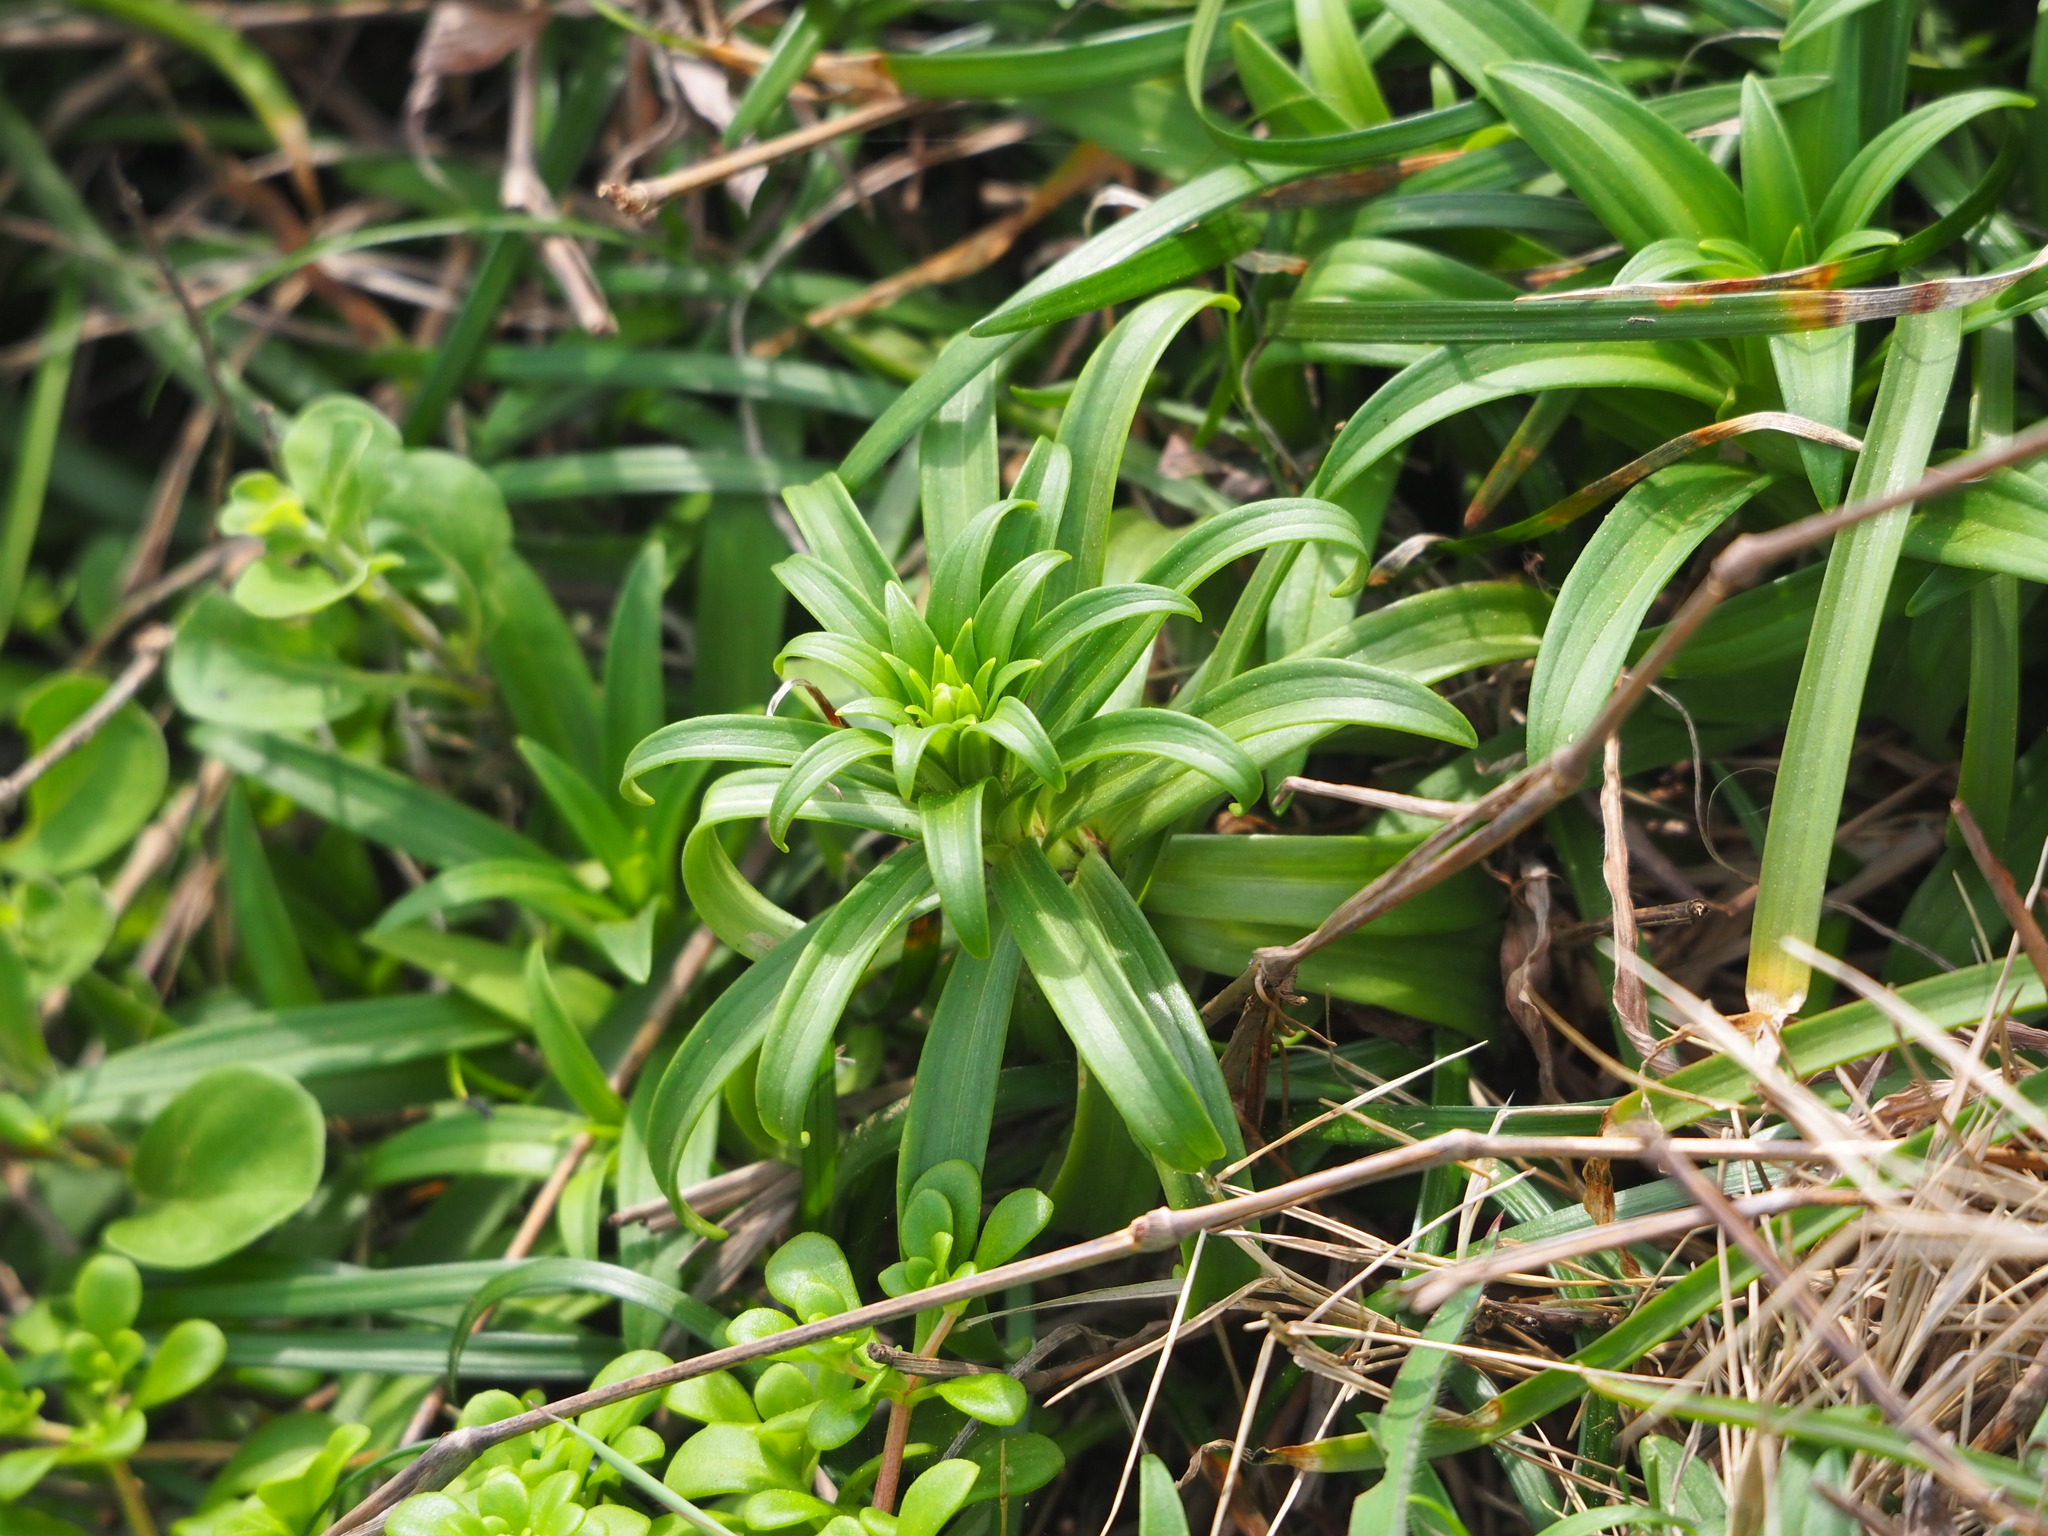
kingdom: Plantae
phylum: Tracheophyta
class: Liliopsida
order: Liliales
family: Liliaceae
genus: Lilium
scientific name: Lilium longiflorum
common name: Easter lily
